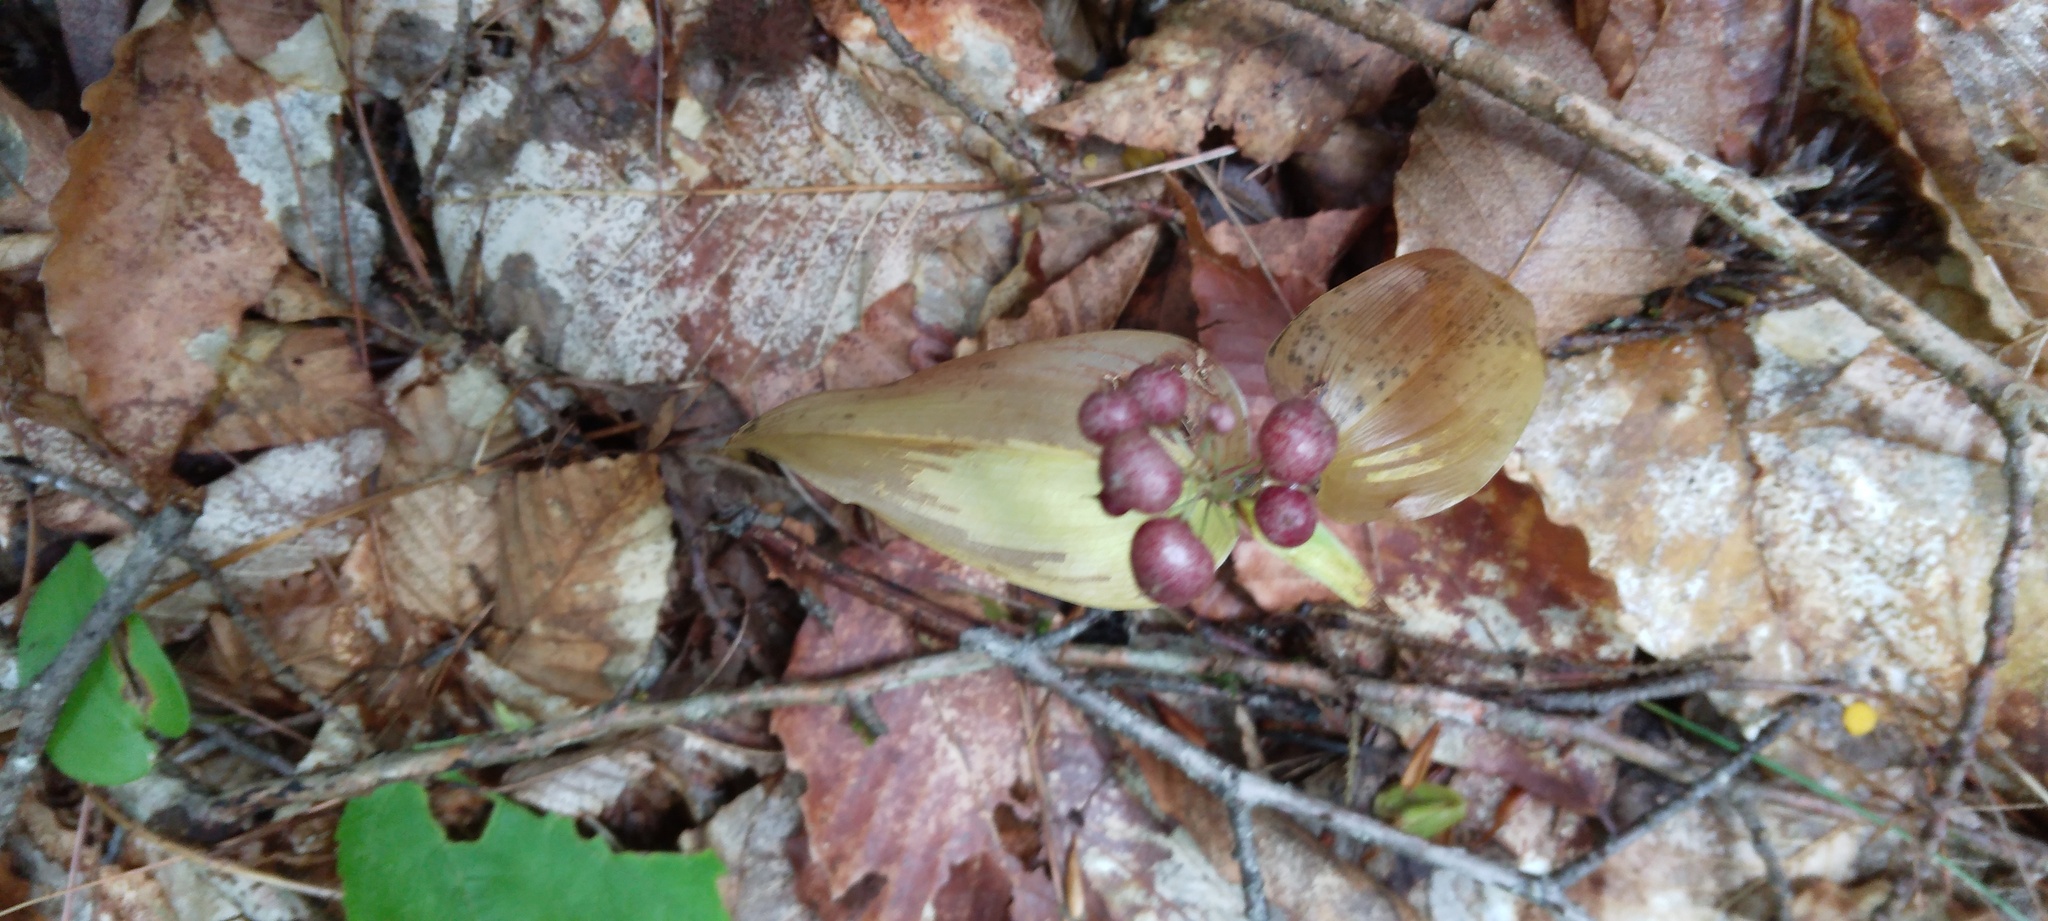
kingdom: Plantae
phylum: Tracheophyta
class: Liliopsida
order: Asparagales
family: Asparagaceae
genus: Maianthemum
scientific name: Maianthemum canadense
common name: False lily-of-the-valley
